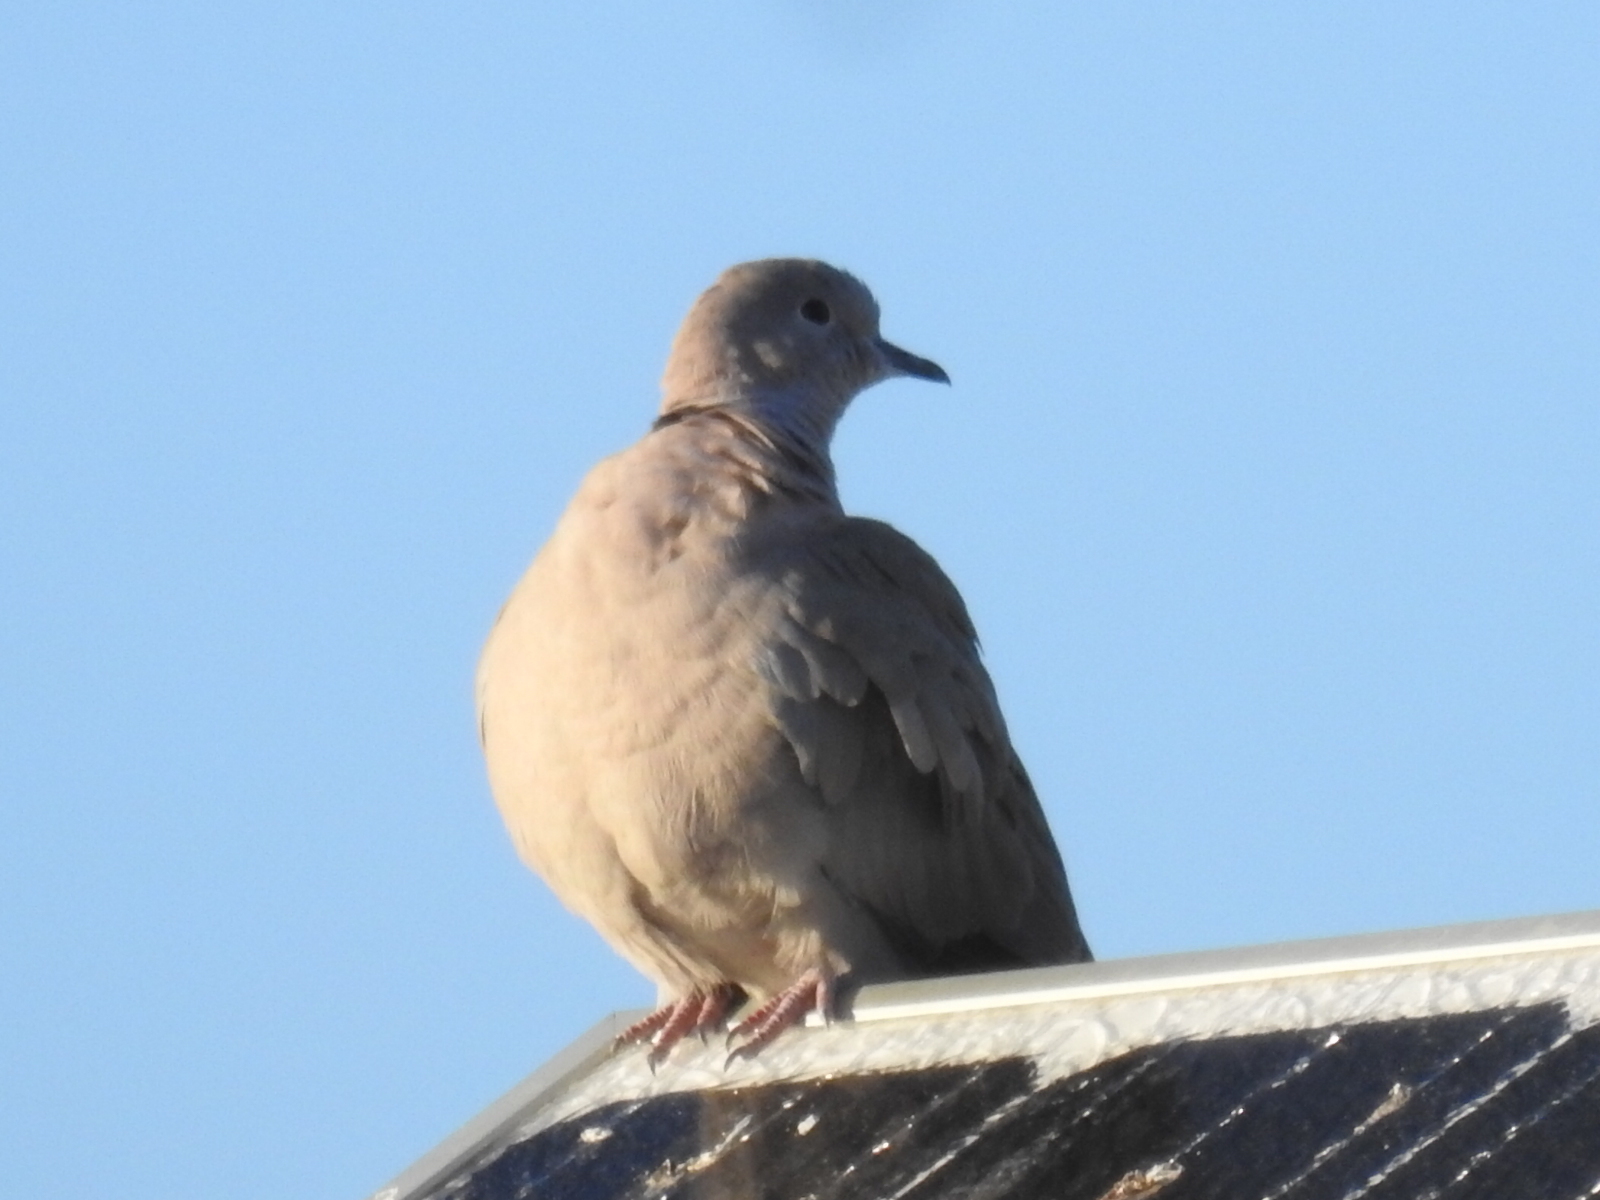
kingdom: Animalia
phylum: Chordata
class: Aves
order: Columbiformes
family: Columbidae
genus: Streptopelia
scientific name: Streptopelia decaocto
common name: Eurasian collared dove
